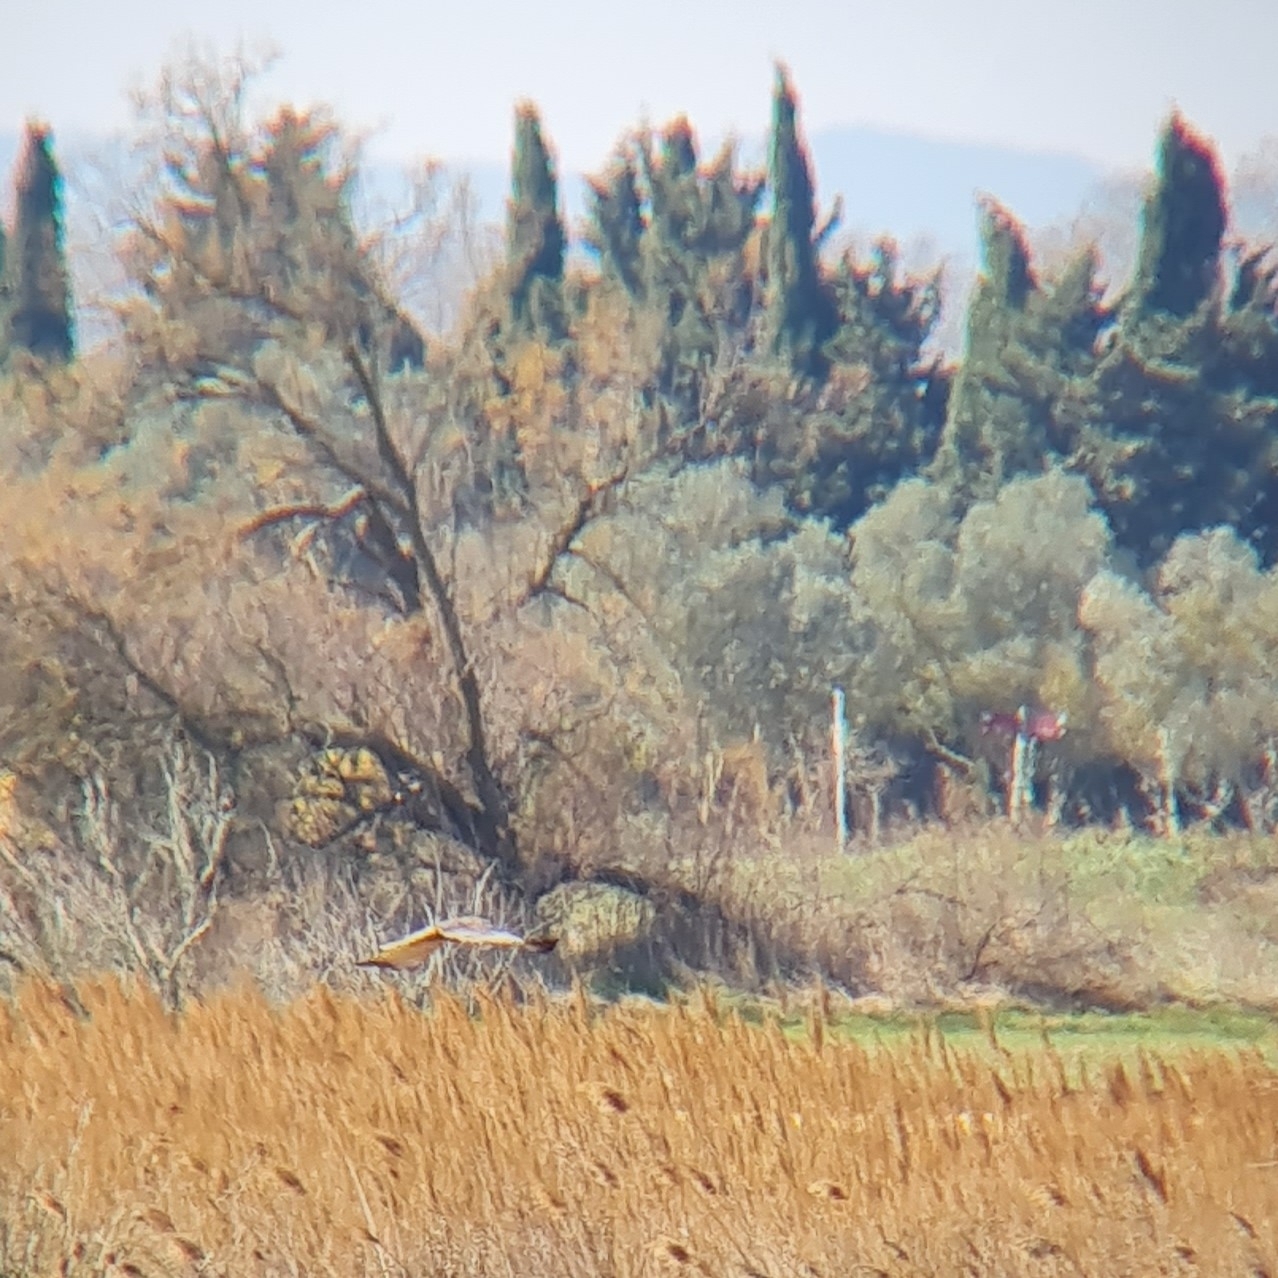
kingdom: Animalia
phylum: Chordata
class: Aves
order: Accipitriformes
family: Accipitridae
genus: Circus
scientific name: Circus aeruginosus
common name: Western marsh harrier
